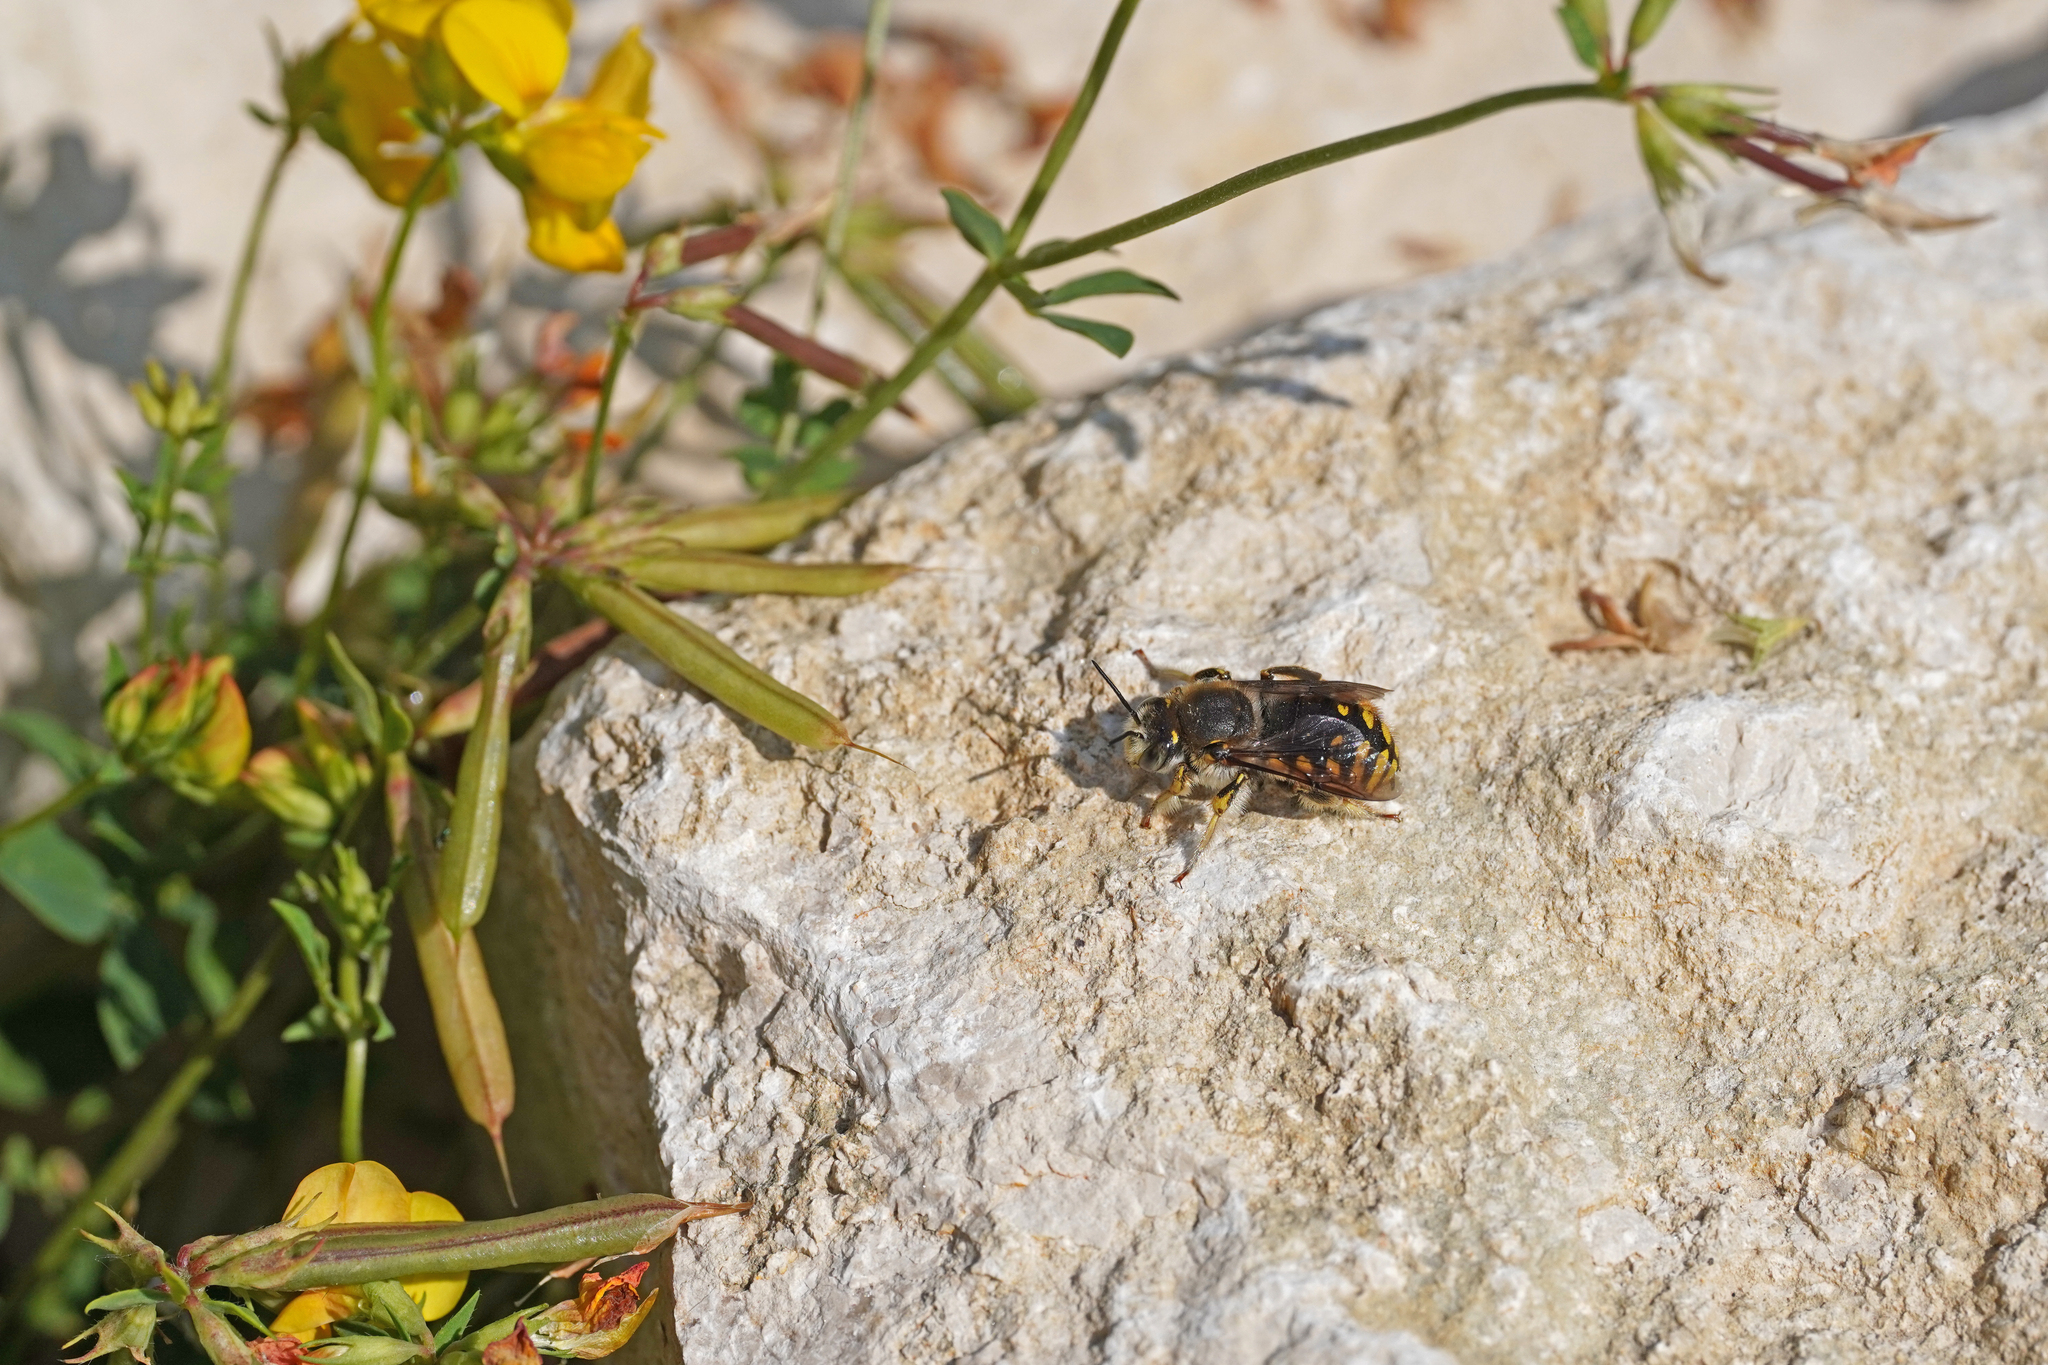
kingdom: Animalia
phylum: Arthropoda
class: Insecta
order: Hymenoptera
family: Megachilidae
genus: Anthidium
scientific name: Anthidium manicatum
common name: Wool carder bee
